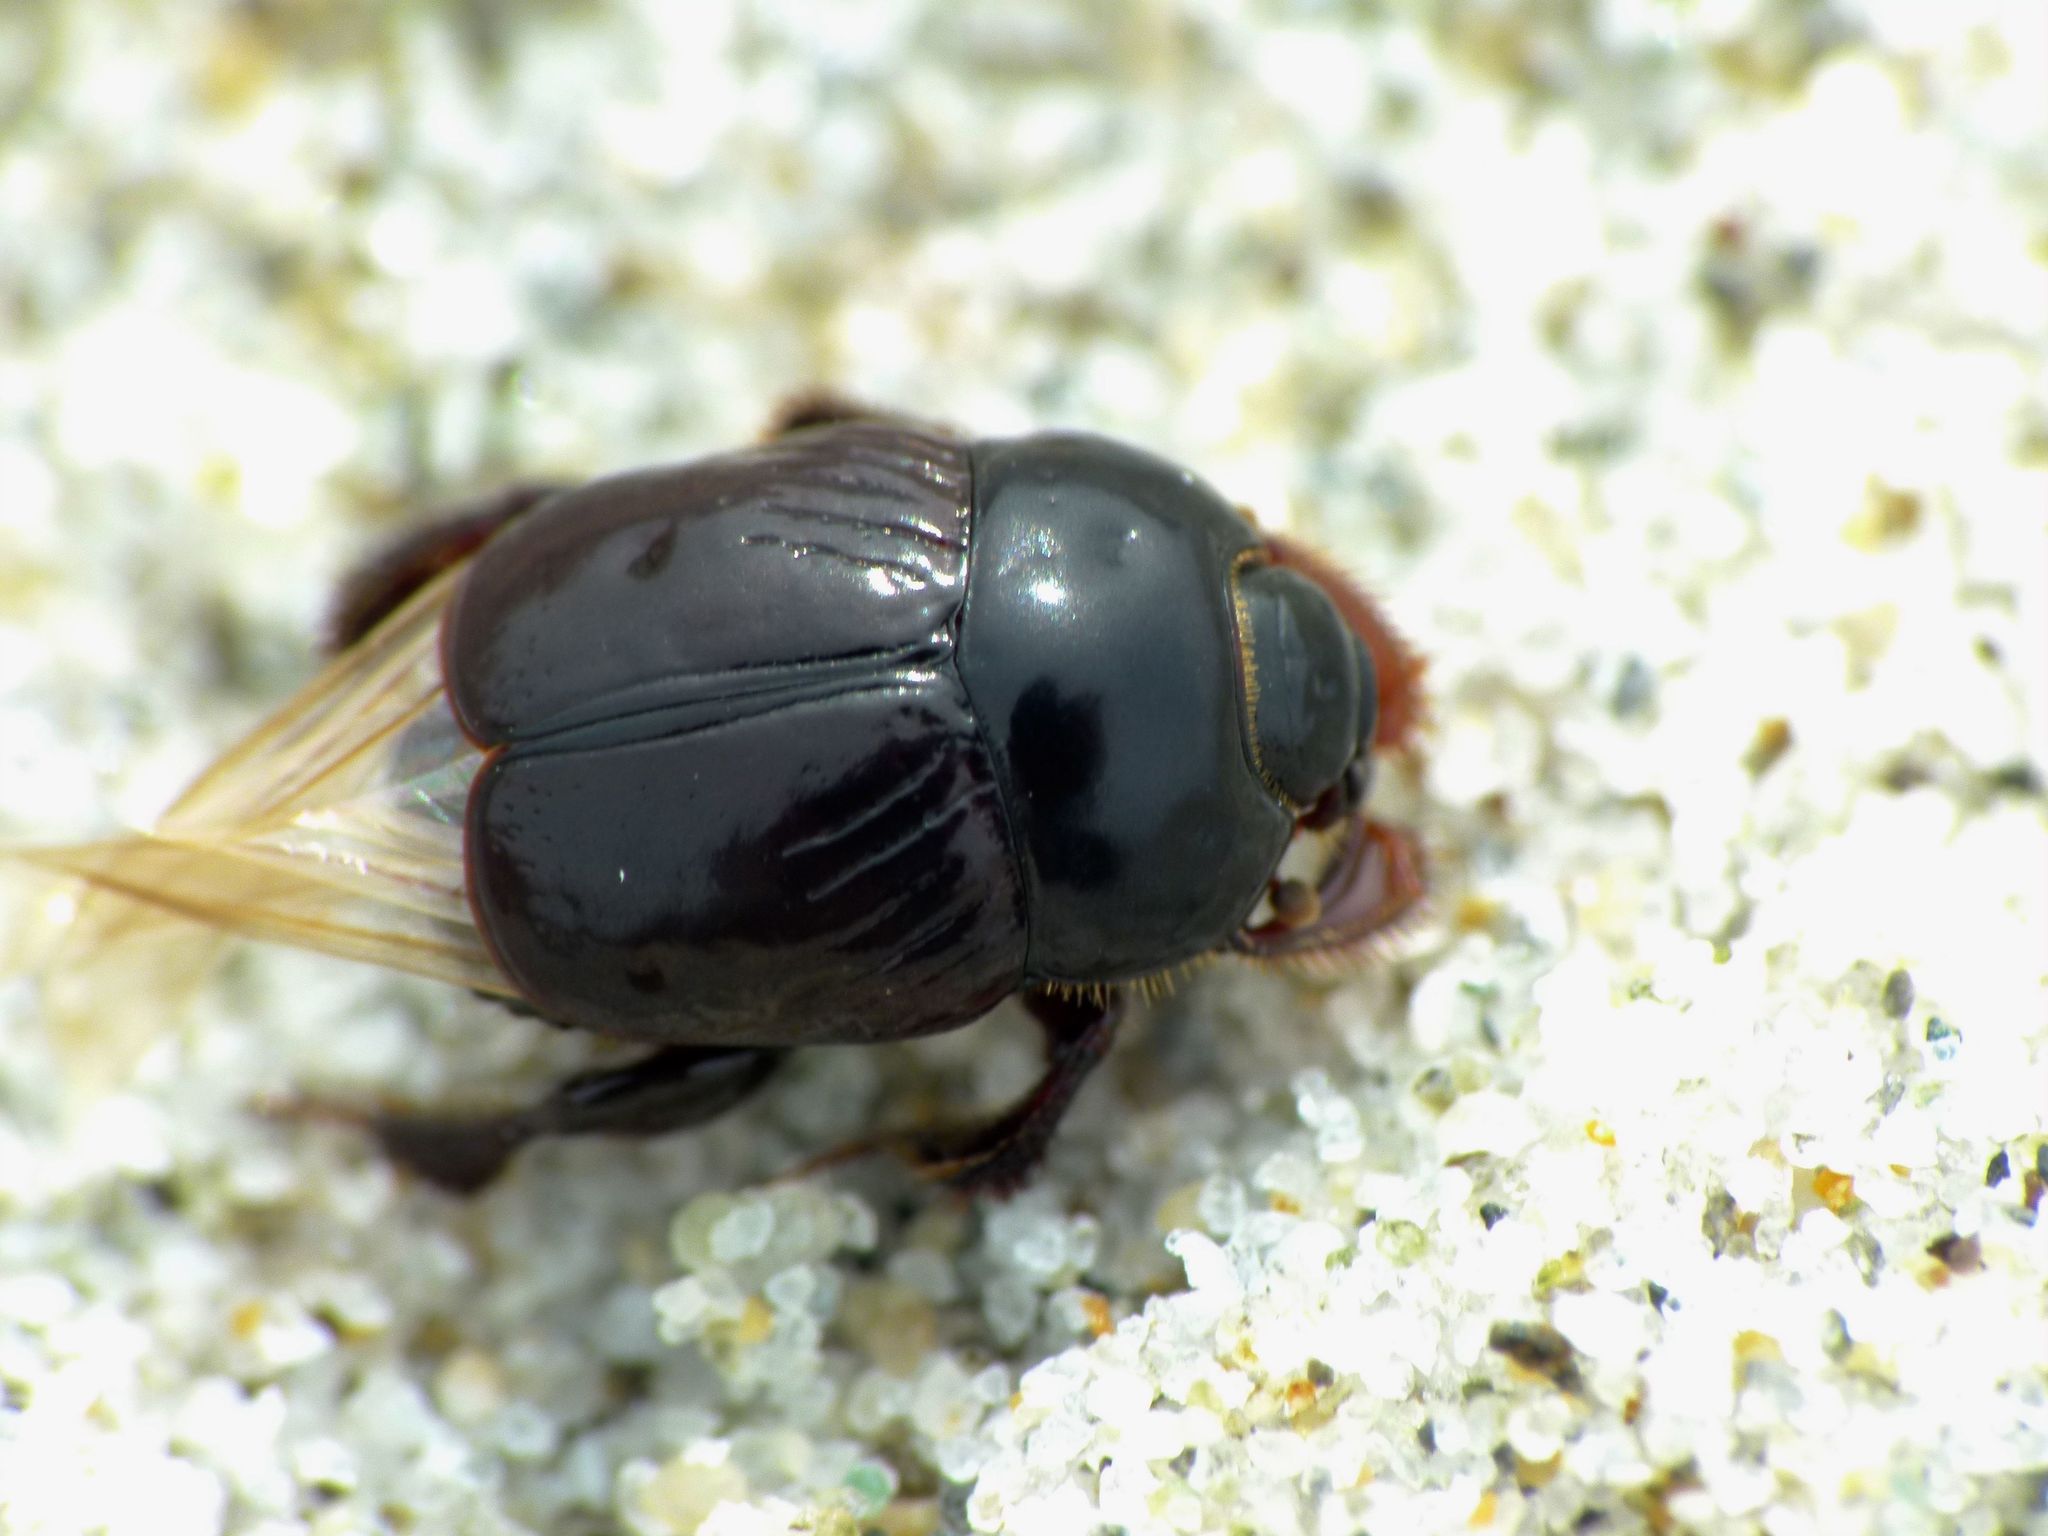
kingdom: Animalia
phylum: Arthropoda
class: Insecta
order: Coleoptera
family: Histeridae
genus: Saprinus
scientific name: Saprinus pedator
